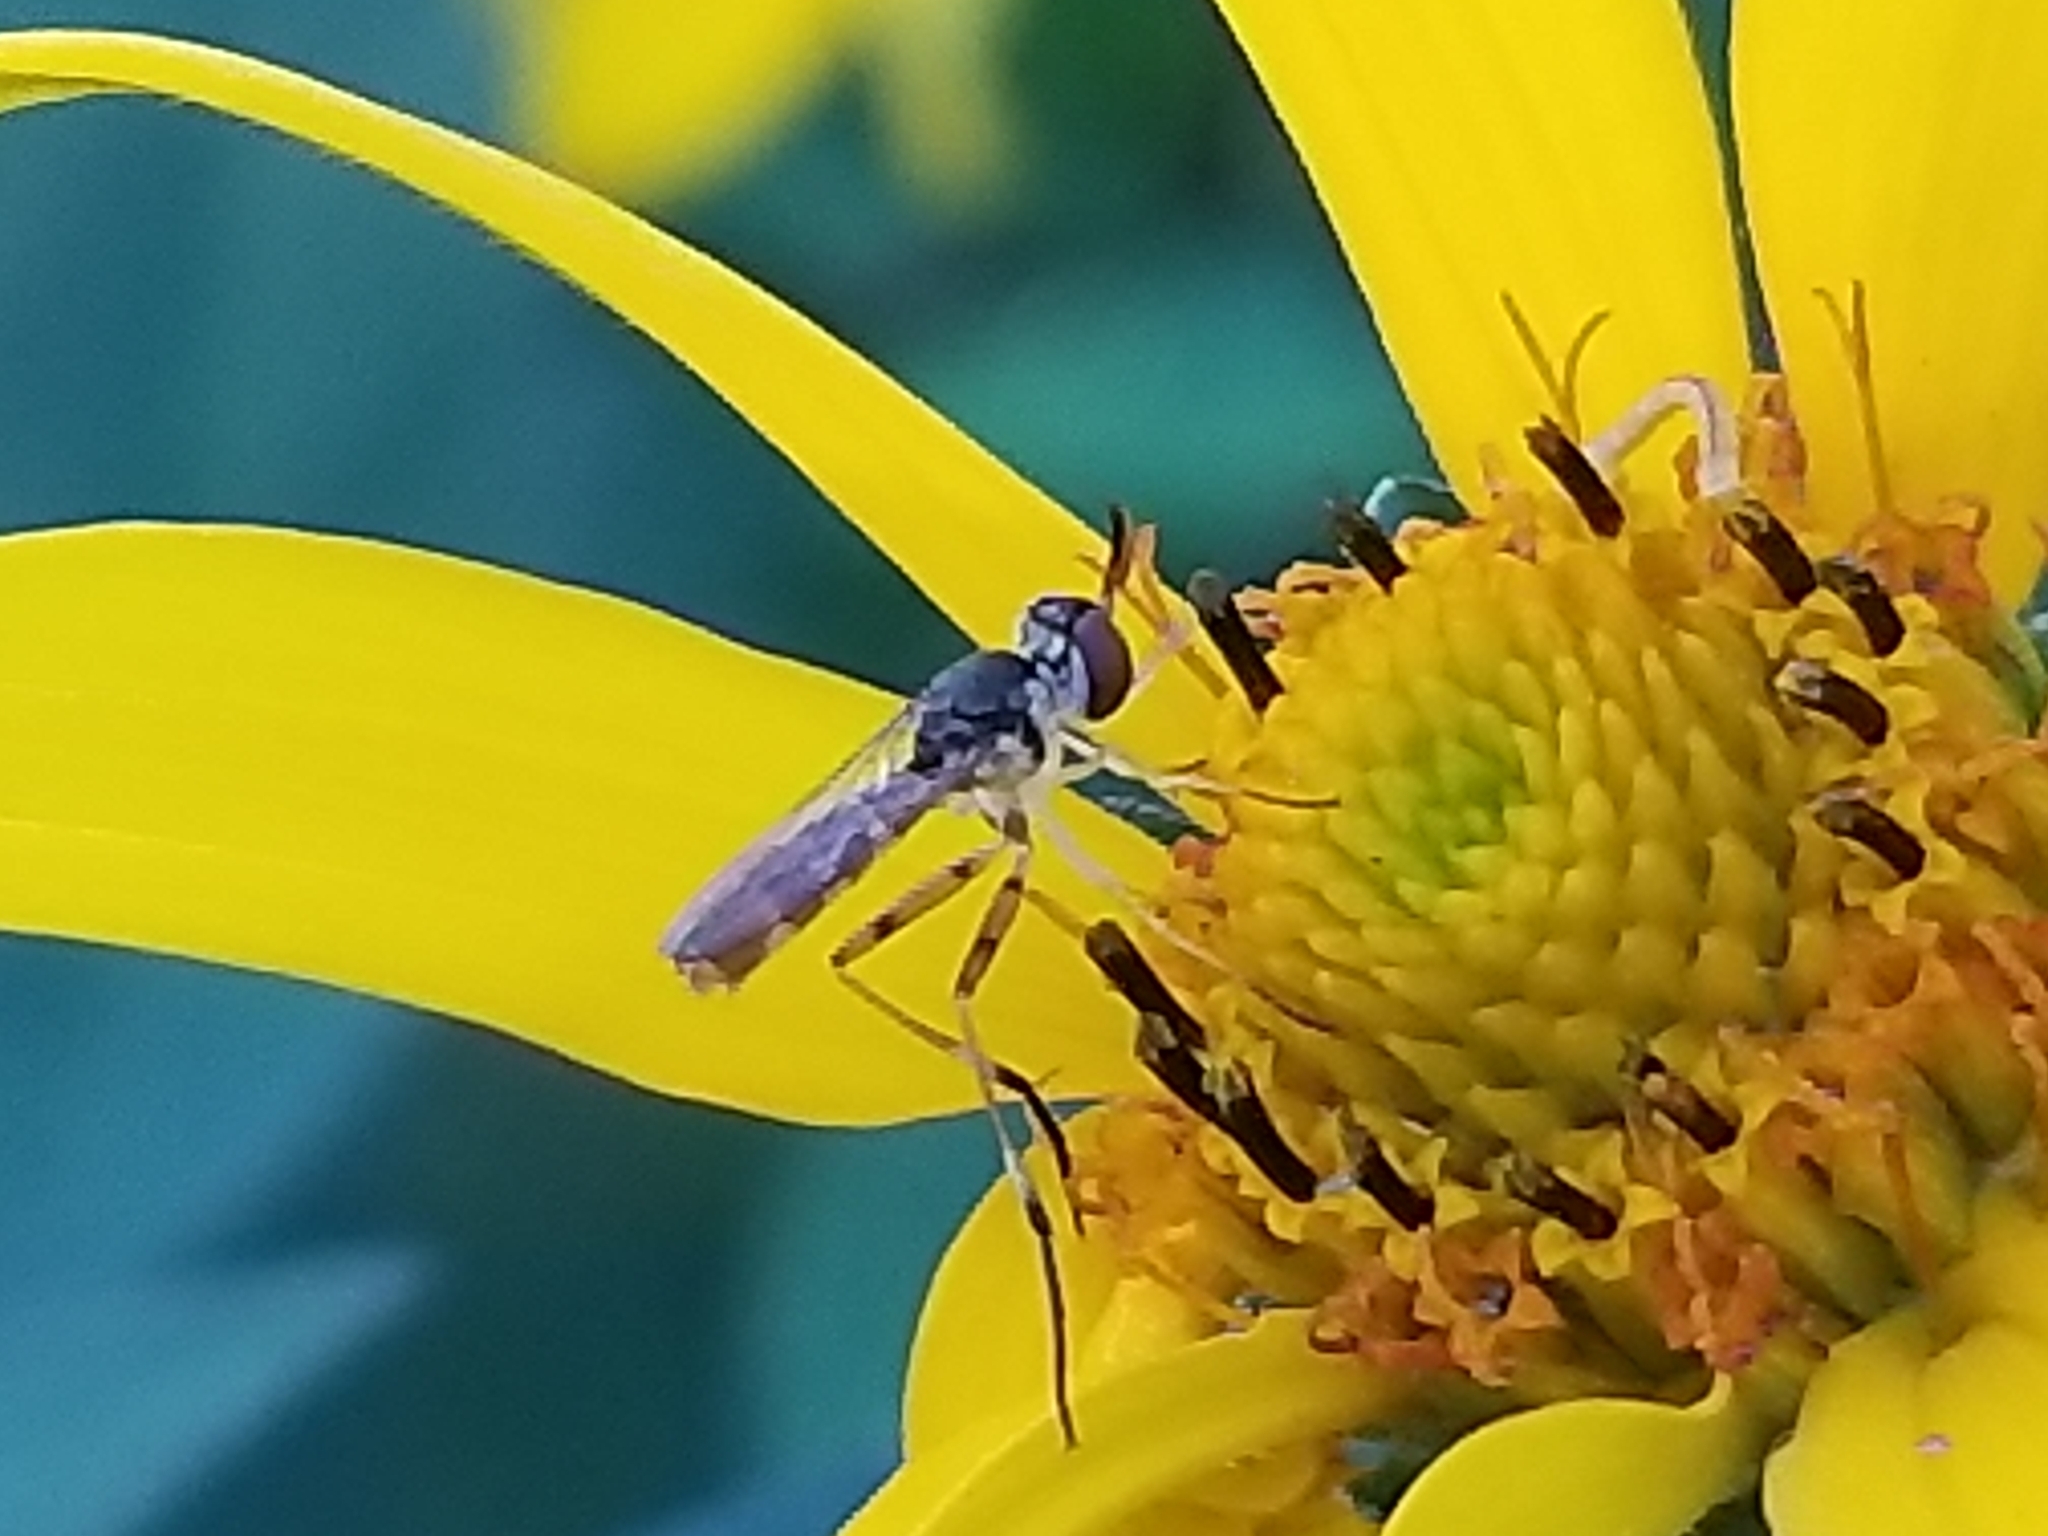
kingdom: Animalia
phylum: Arthropoda
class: Insecta
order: Diptera
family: Conopidae
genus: Stylogaster
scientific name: Stylogaster neglecta
